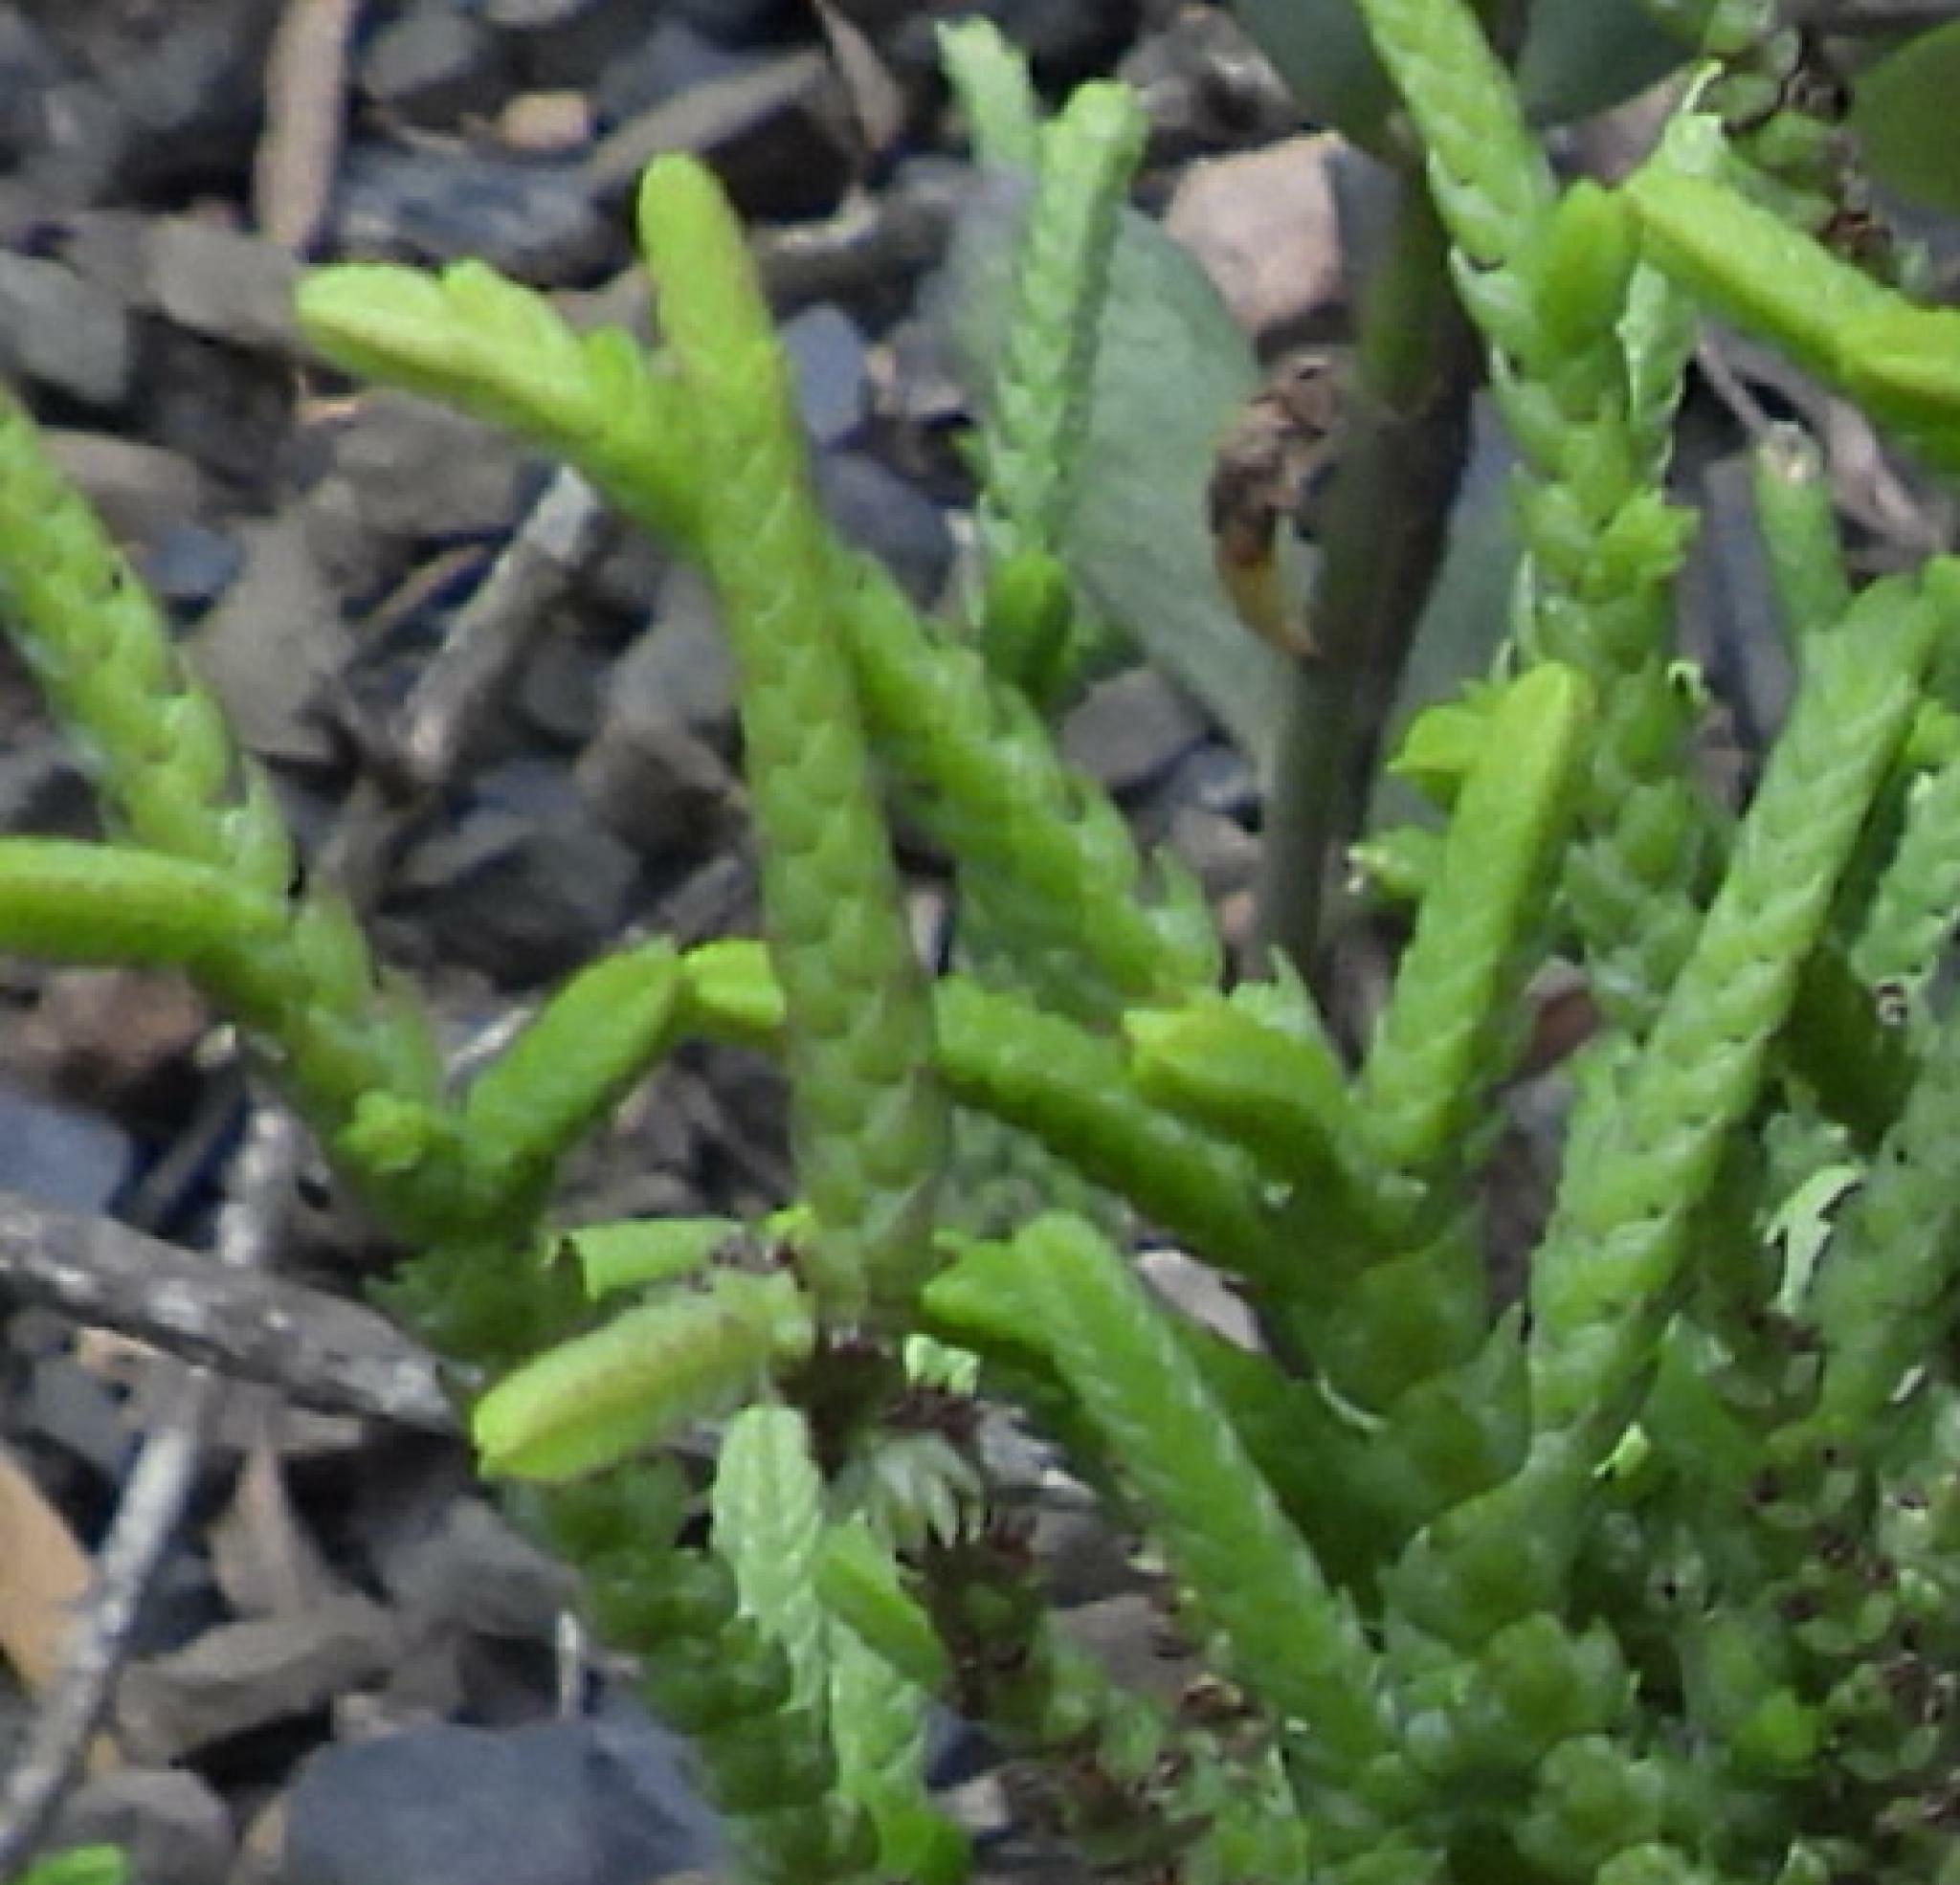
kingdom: Plantae
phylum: Tracheophyta
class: Magnoliopsida
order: Saxifragales
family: Crassulaceae
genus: Crassula
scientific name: Crassula muscosa
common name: Toy-cypress
